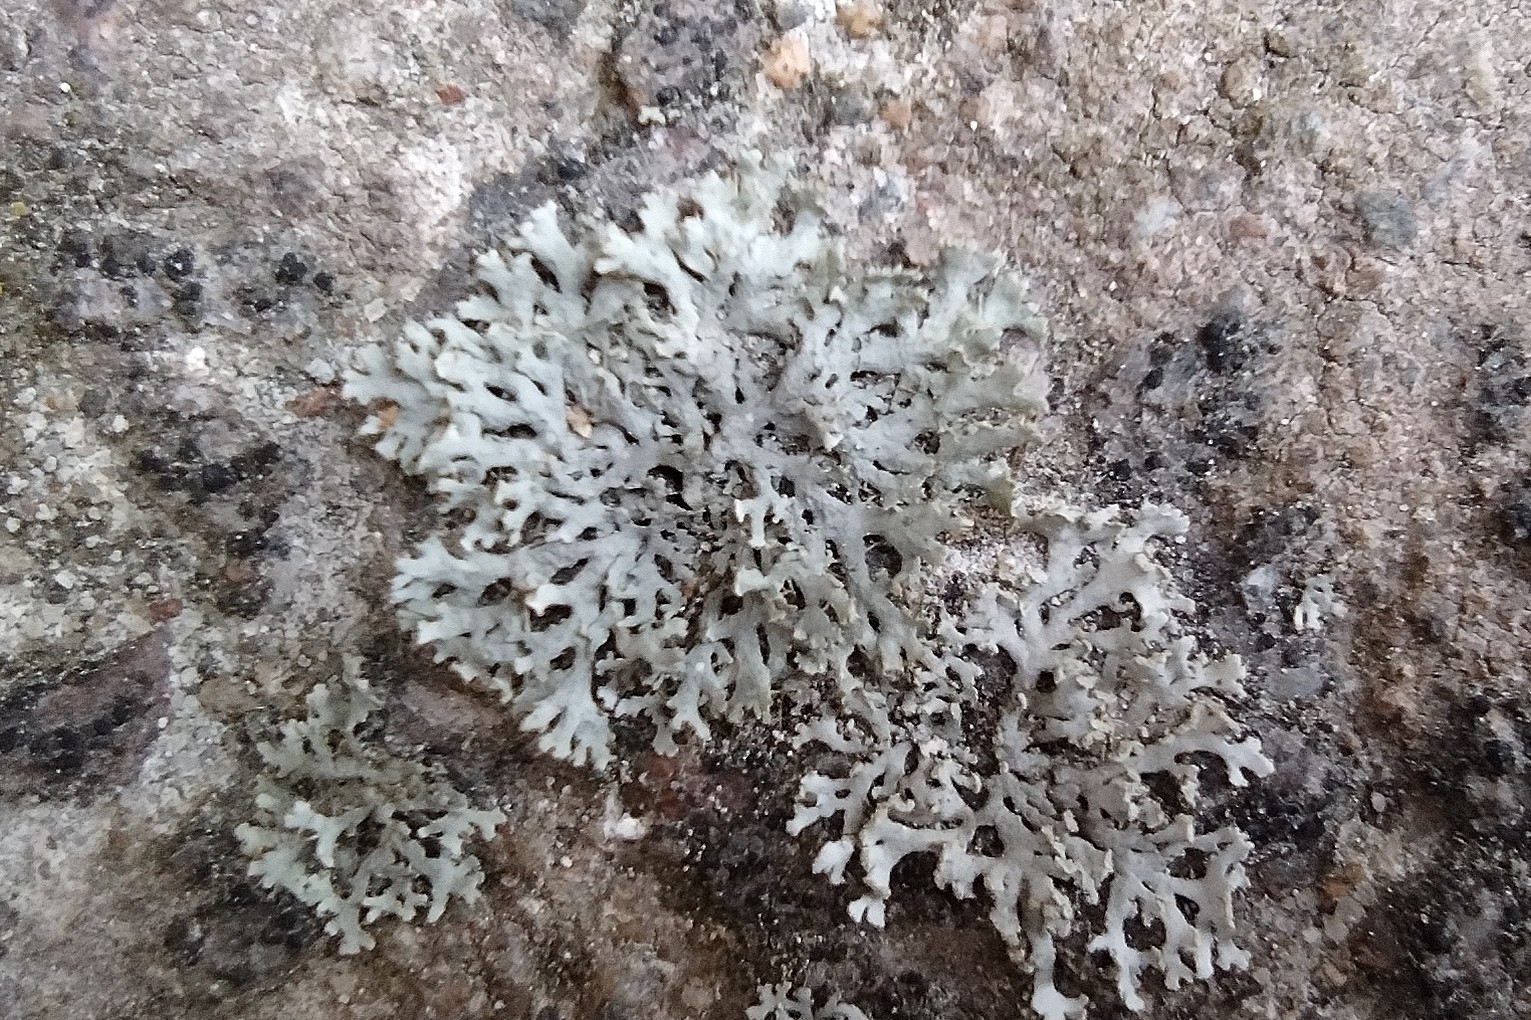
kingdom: Fungi
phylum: Ascomycota
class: Lecanoromycetes
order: Caliciales
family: Physciaceae
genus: Physcia
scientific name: Physcia tenella
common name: Fringed rosette lichen
